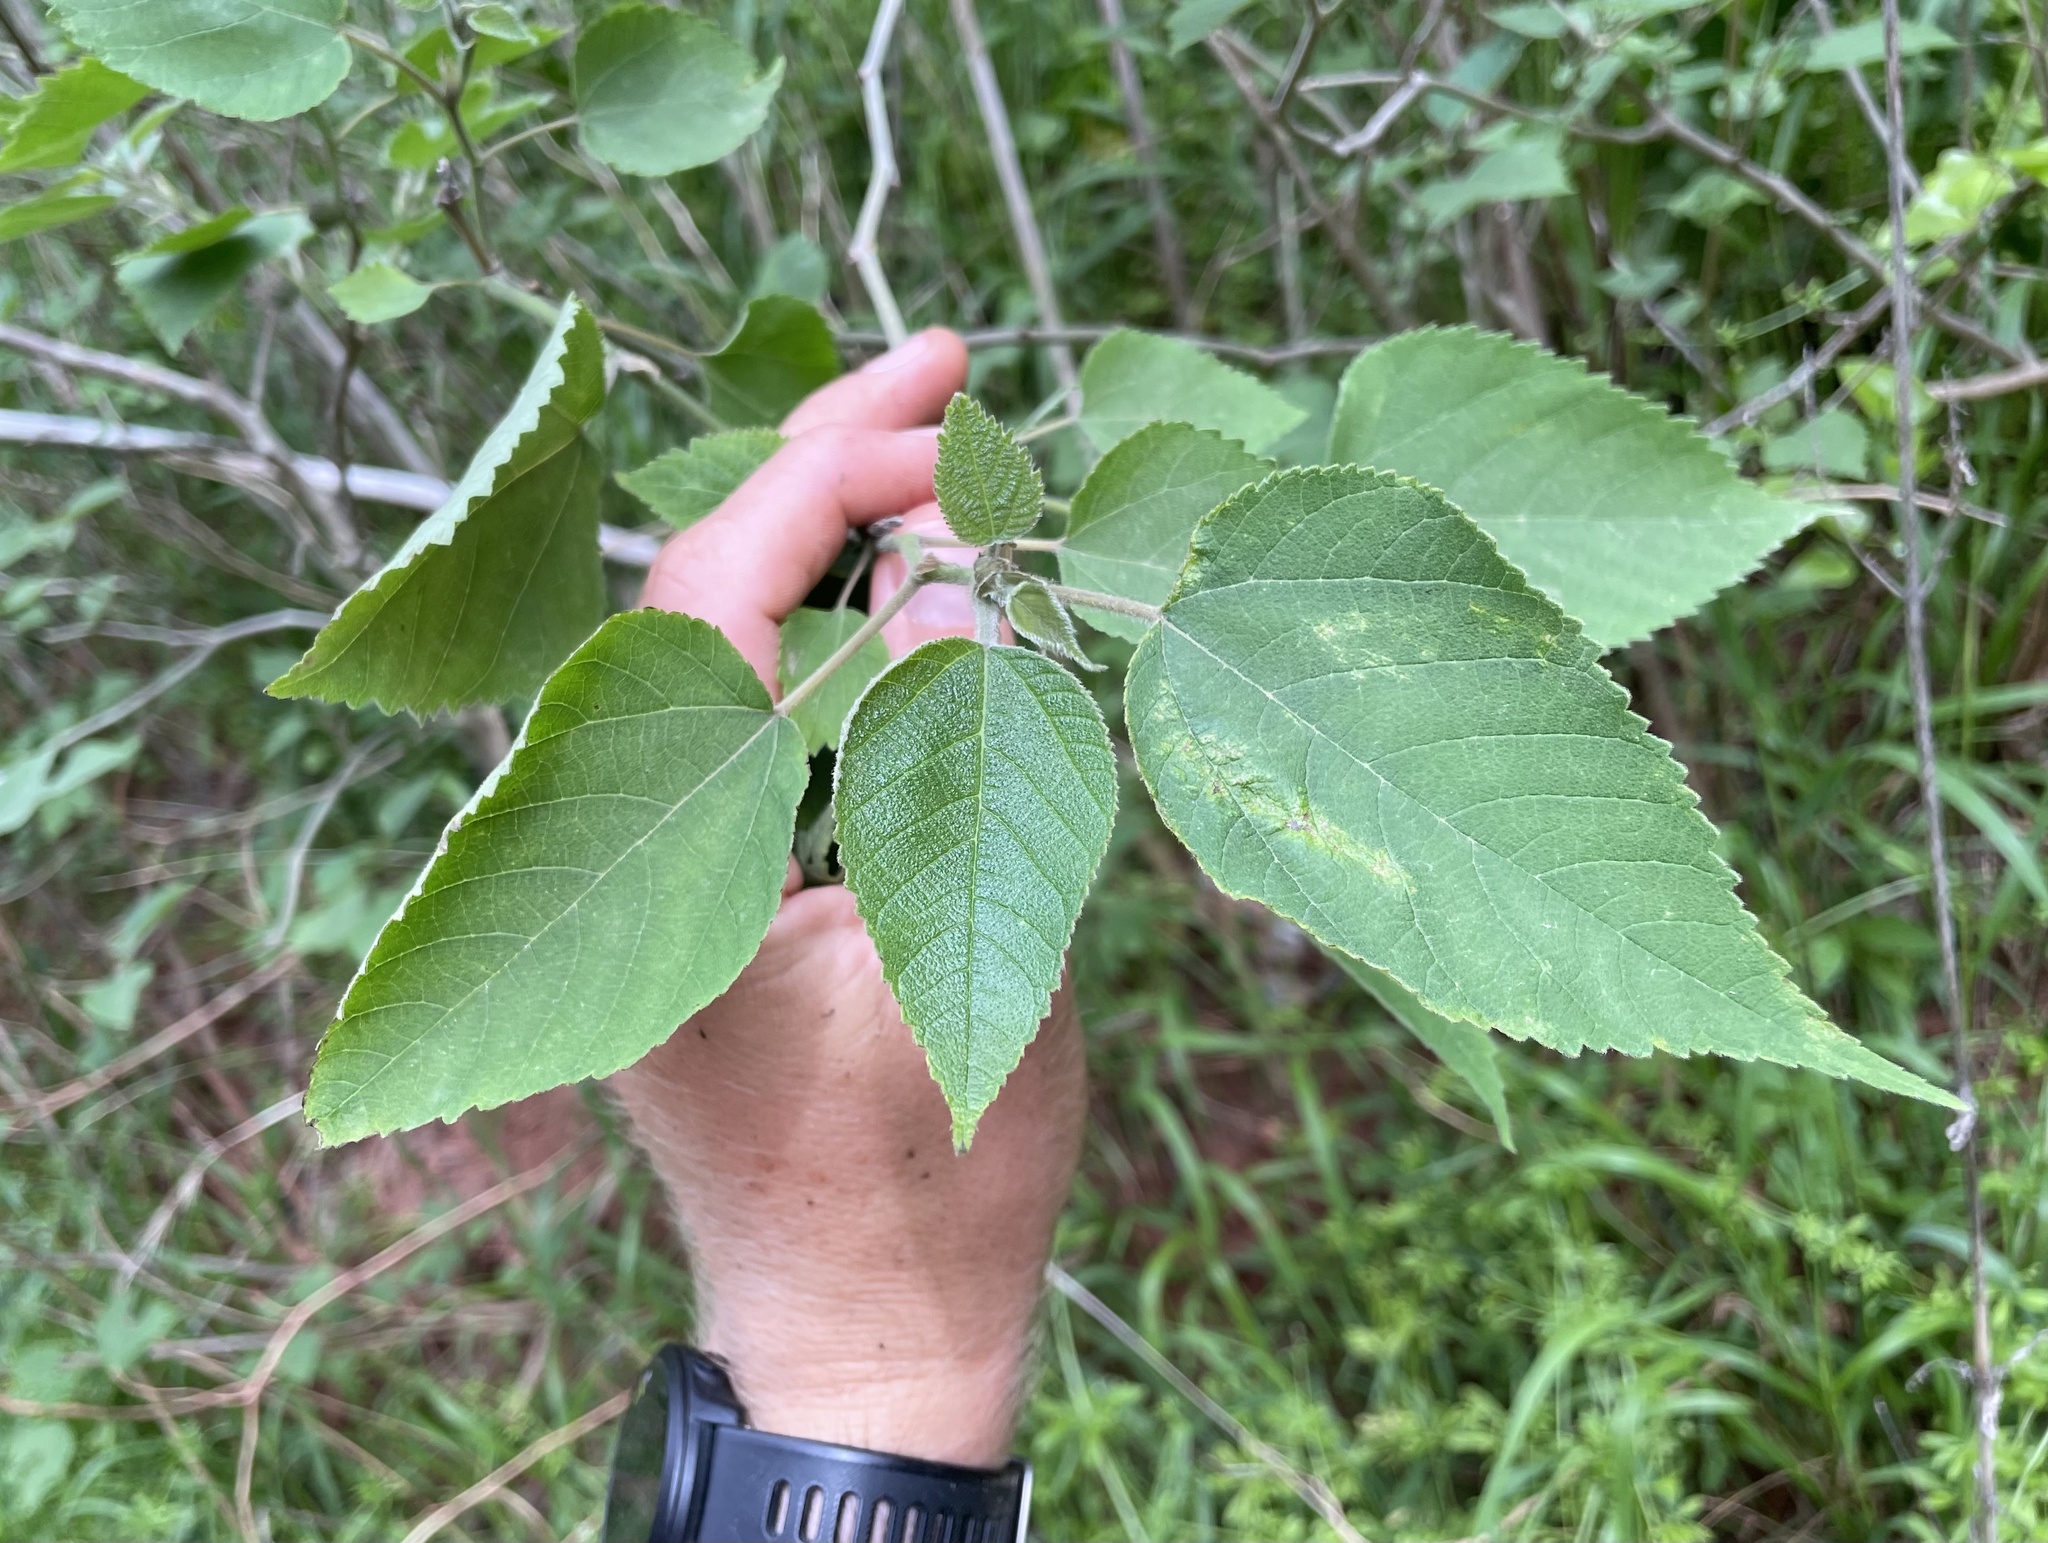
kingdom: Plantae
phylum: Tracheophyta
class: Magnoliopsida
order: Rosales
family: Moraceae
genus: Broussonetia
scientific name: Broussonetia papyrifera
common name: Paper mulberry
